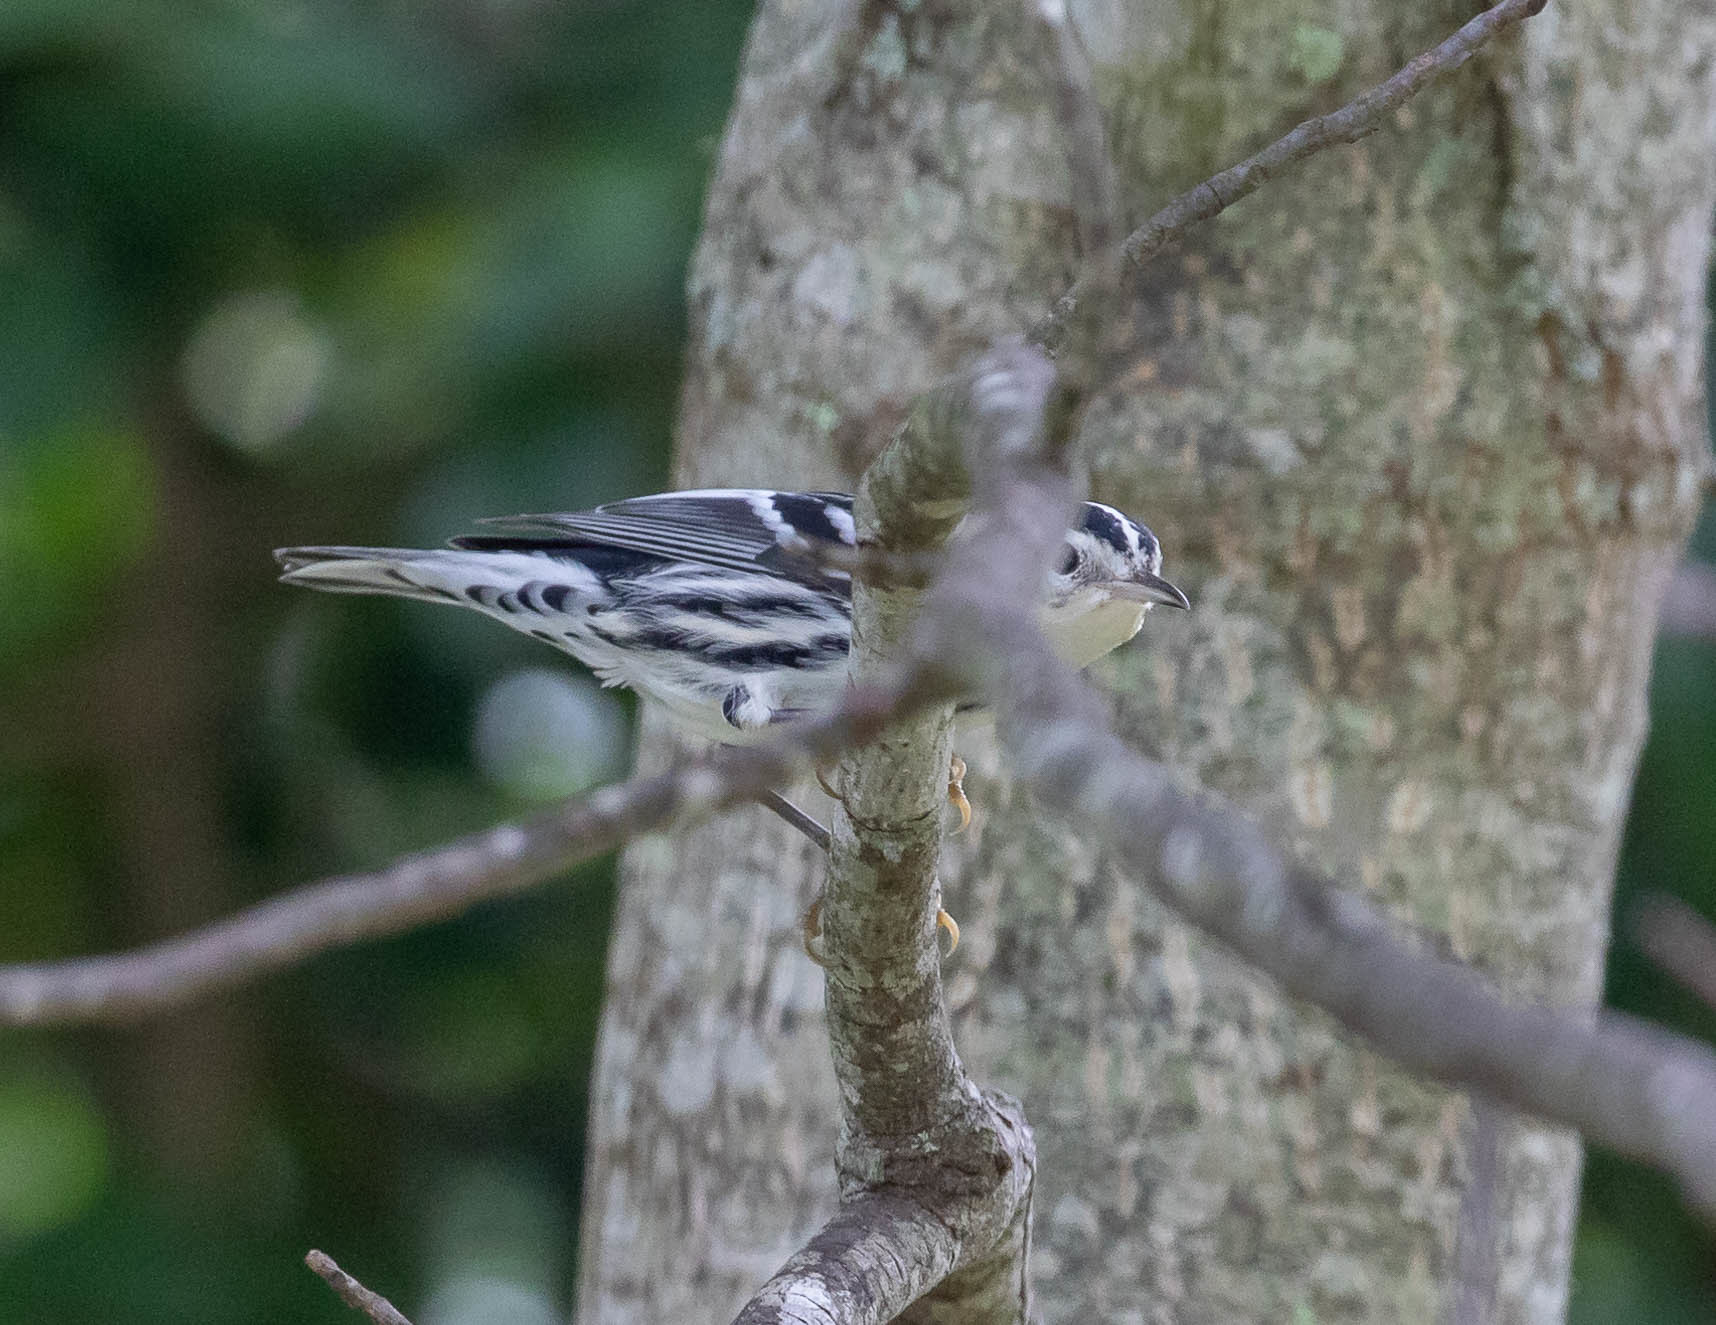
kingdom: Animalia
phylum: Chordata
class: Aves
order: Passeriformes
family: Parulidae
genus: Mniotilta
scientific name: Mniotilta varia
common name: Black-and-white warbler
